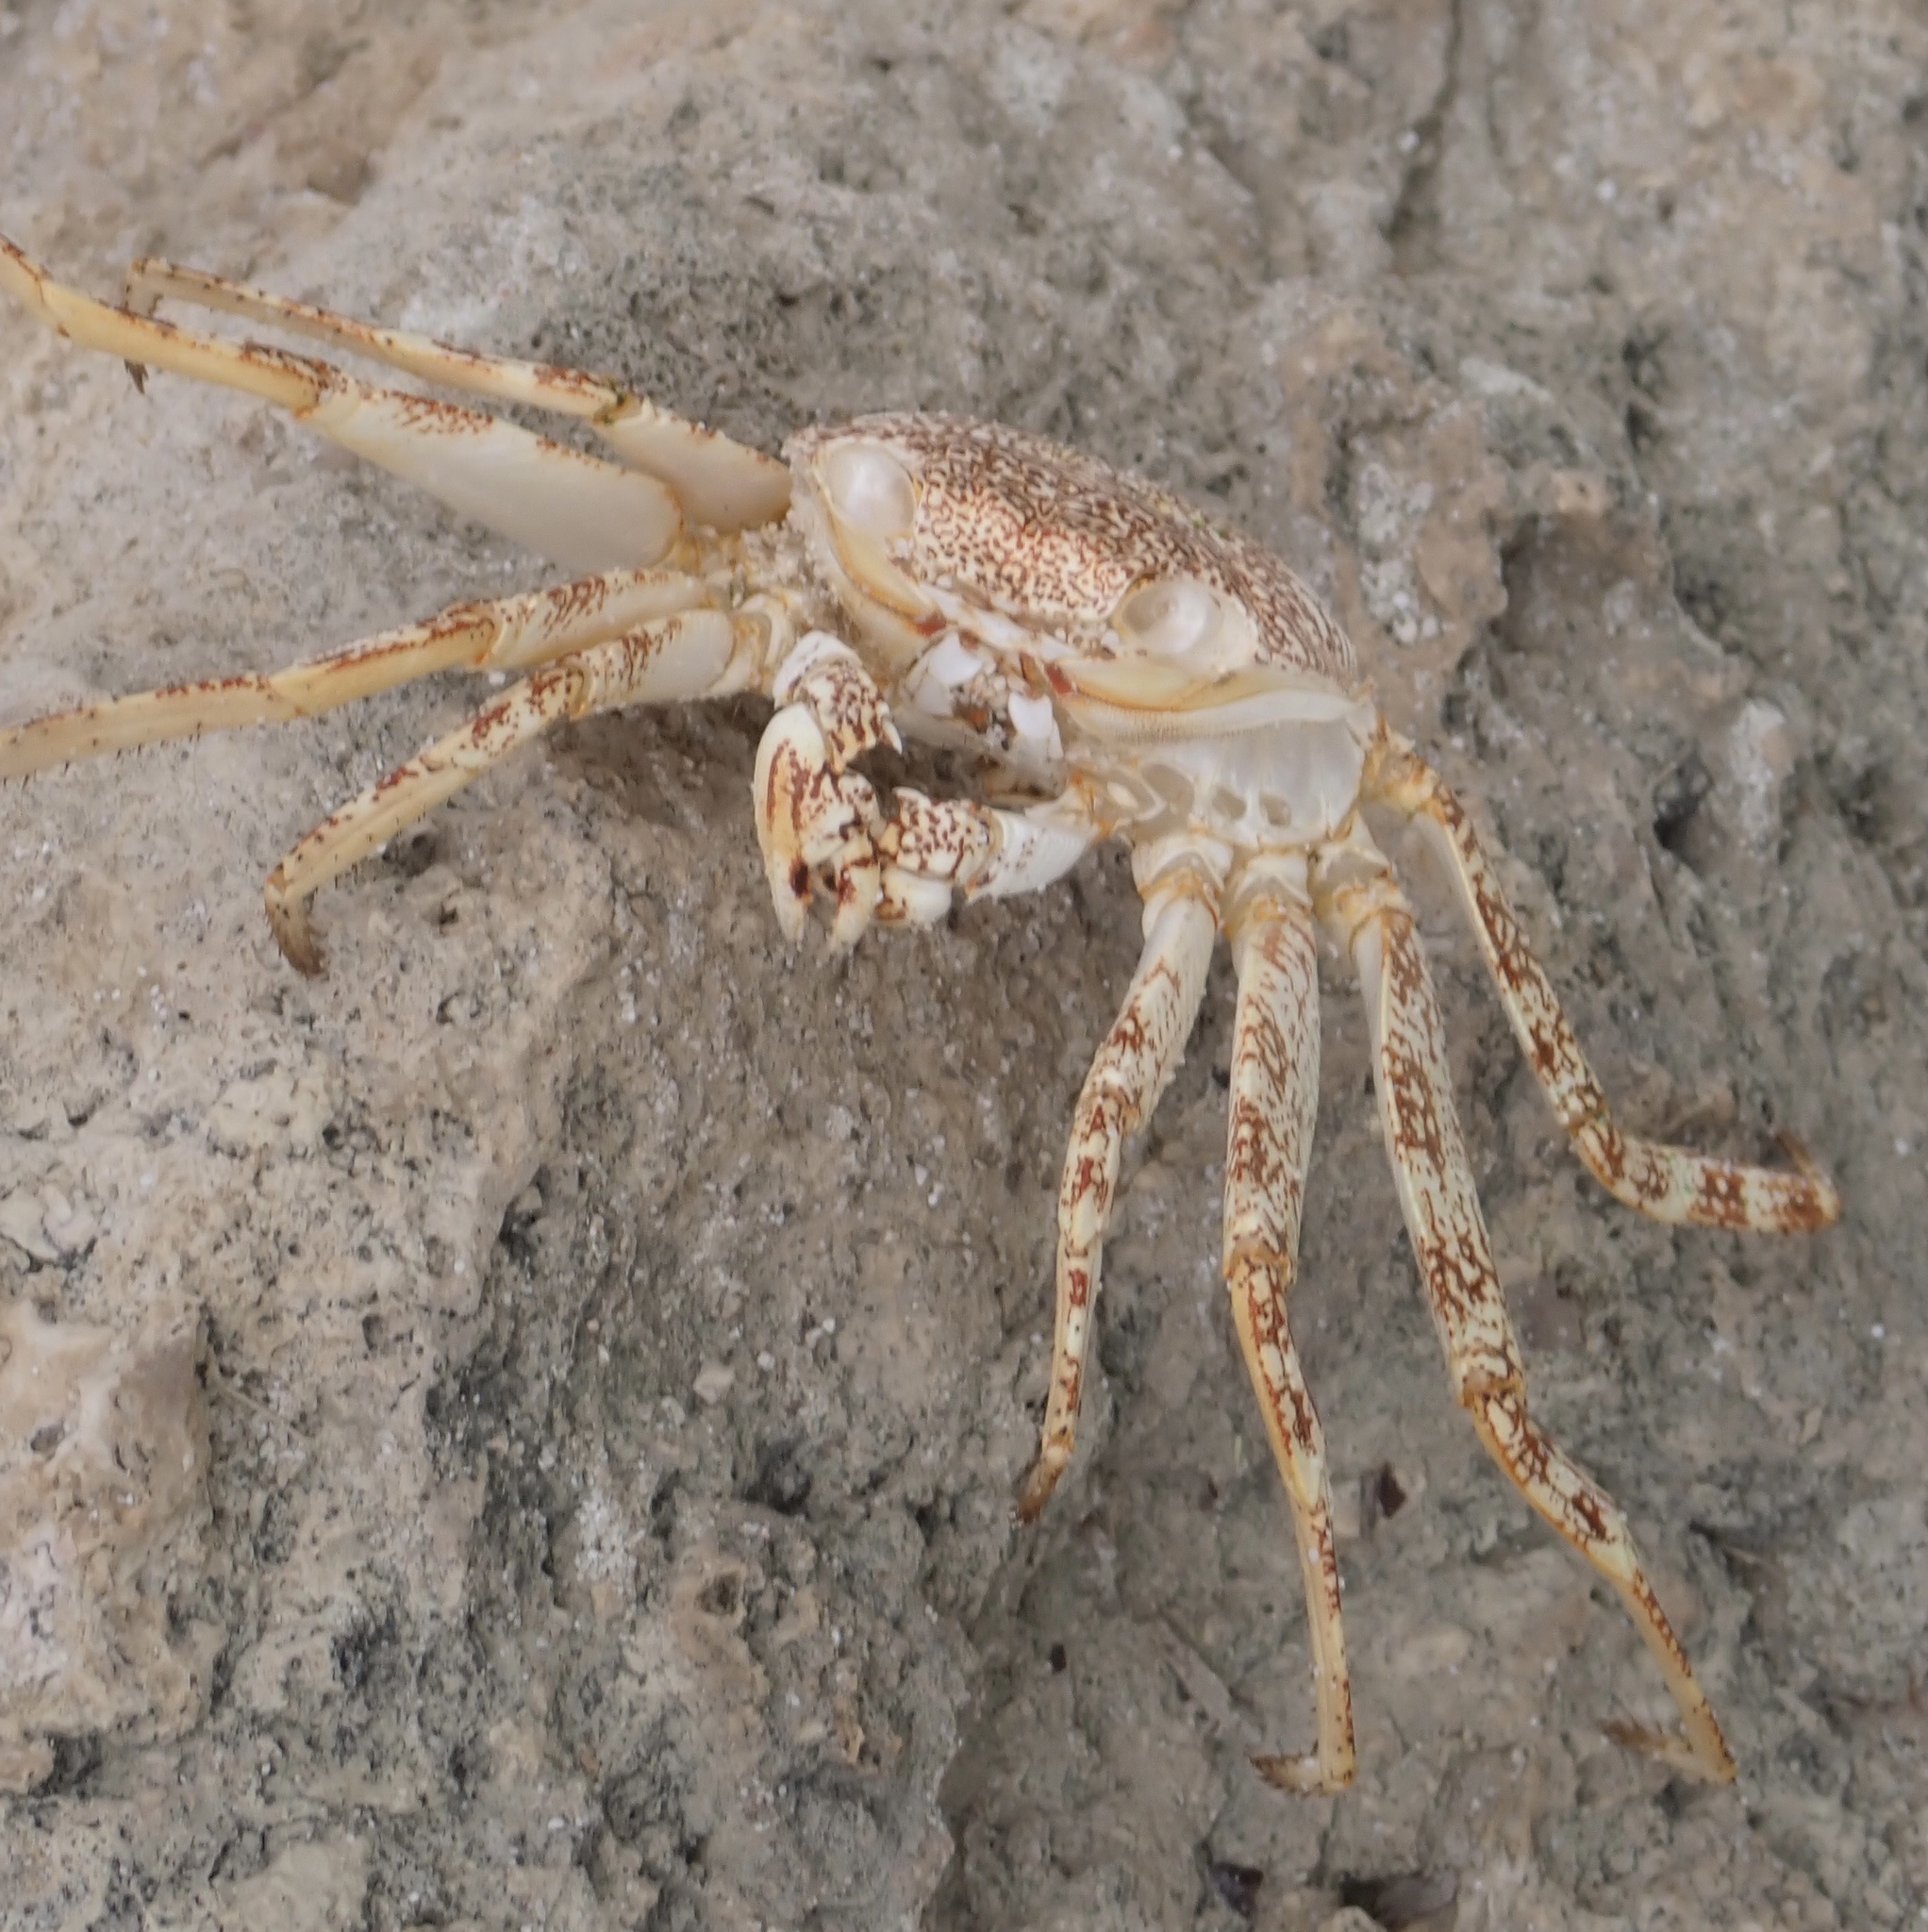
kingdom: Animalia
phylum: Arthropoda
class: Malacostraca
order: Decapoda
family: Grapsidae
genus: Grapsus
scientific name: Grapsus grapsus
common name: Sally lightfoot
